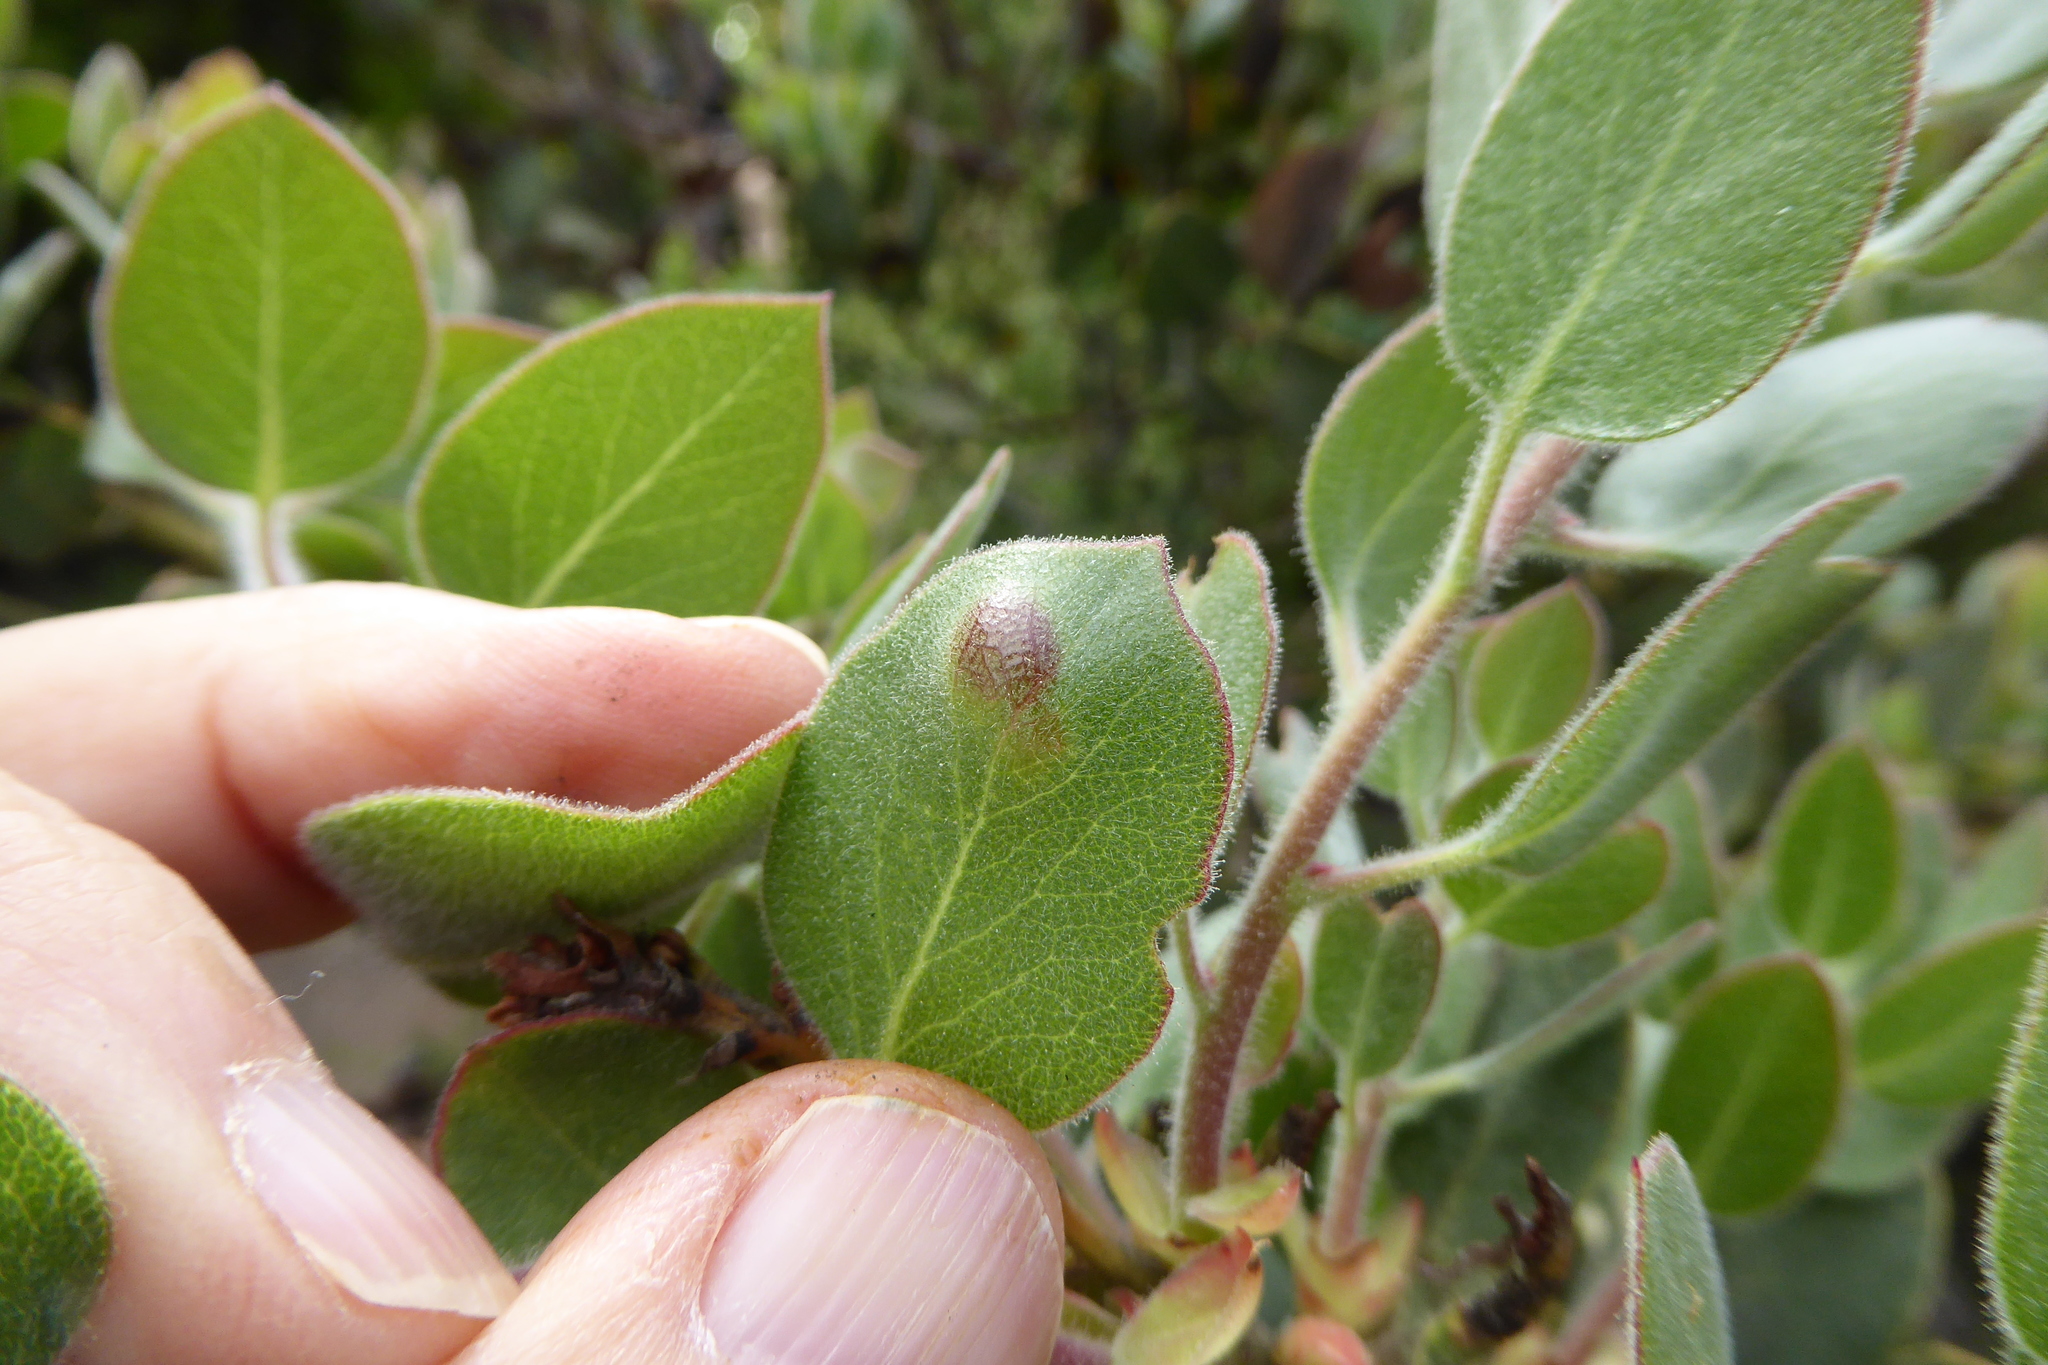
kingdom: Fungi
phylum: Basidiomycota
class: Exobasidiomycetes
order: Exobasidiales
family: Exobasidiaceae
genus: Exobasidium
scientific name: Exobasidium arctostaphyli
